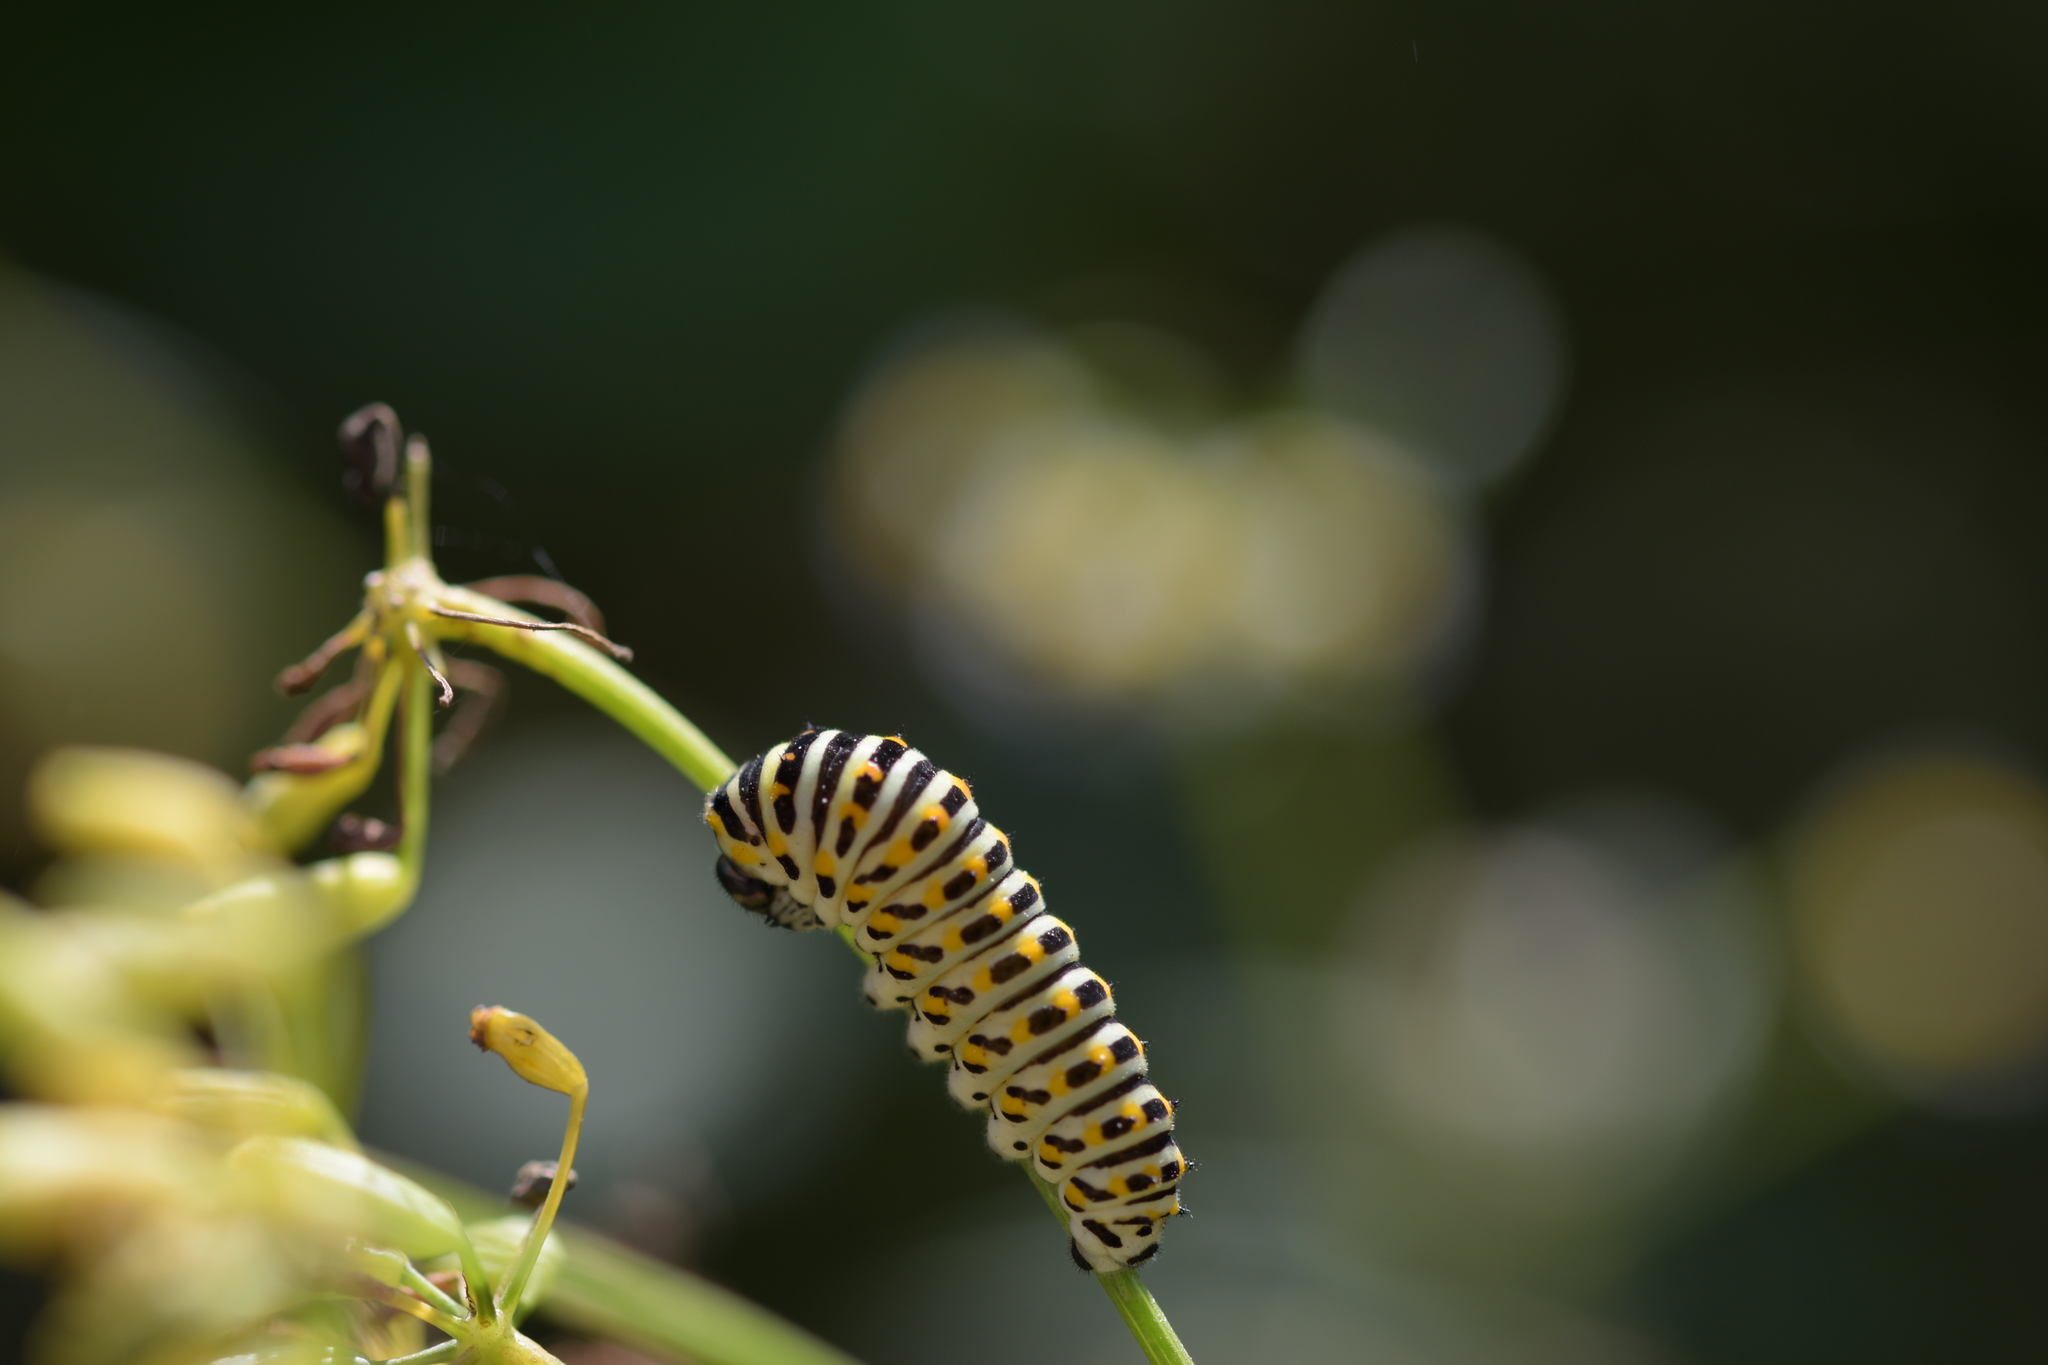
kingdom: Animalia
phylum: Arthropoda
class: Insecta
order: Lepidoptera
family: Papilionidae
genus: Papilio
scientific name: Papilio machaon
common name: Swallowtail
